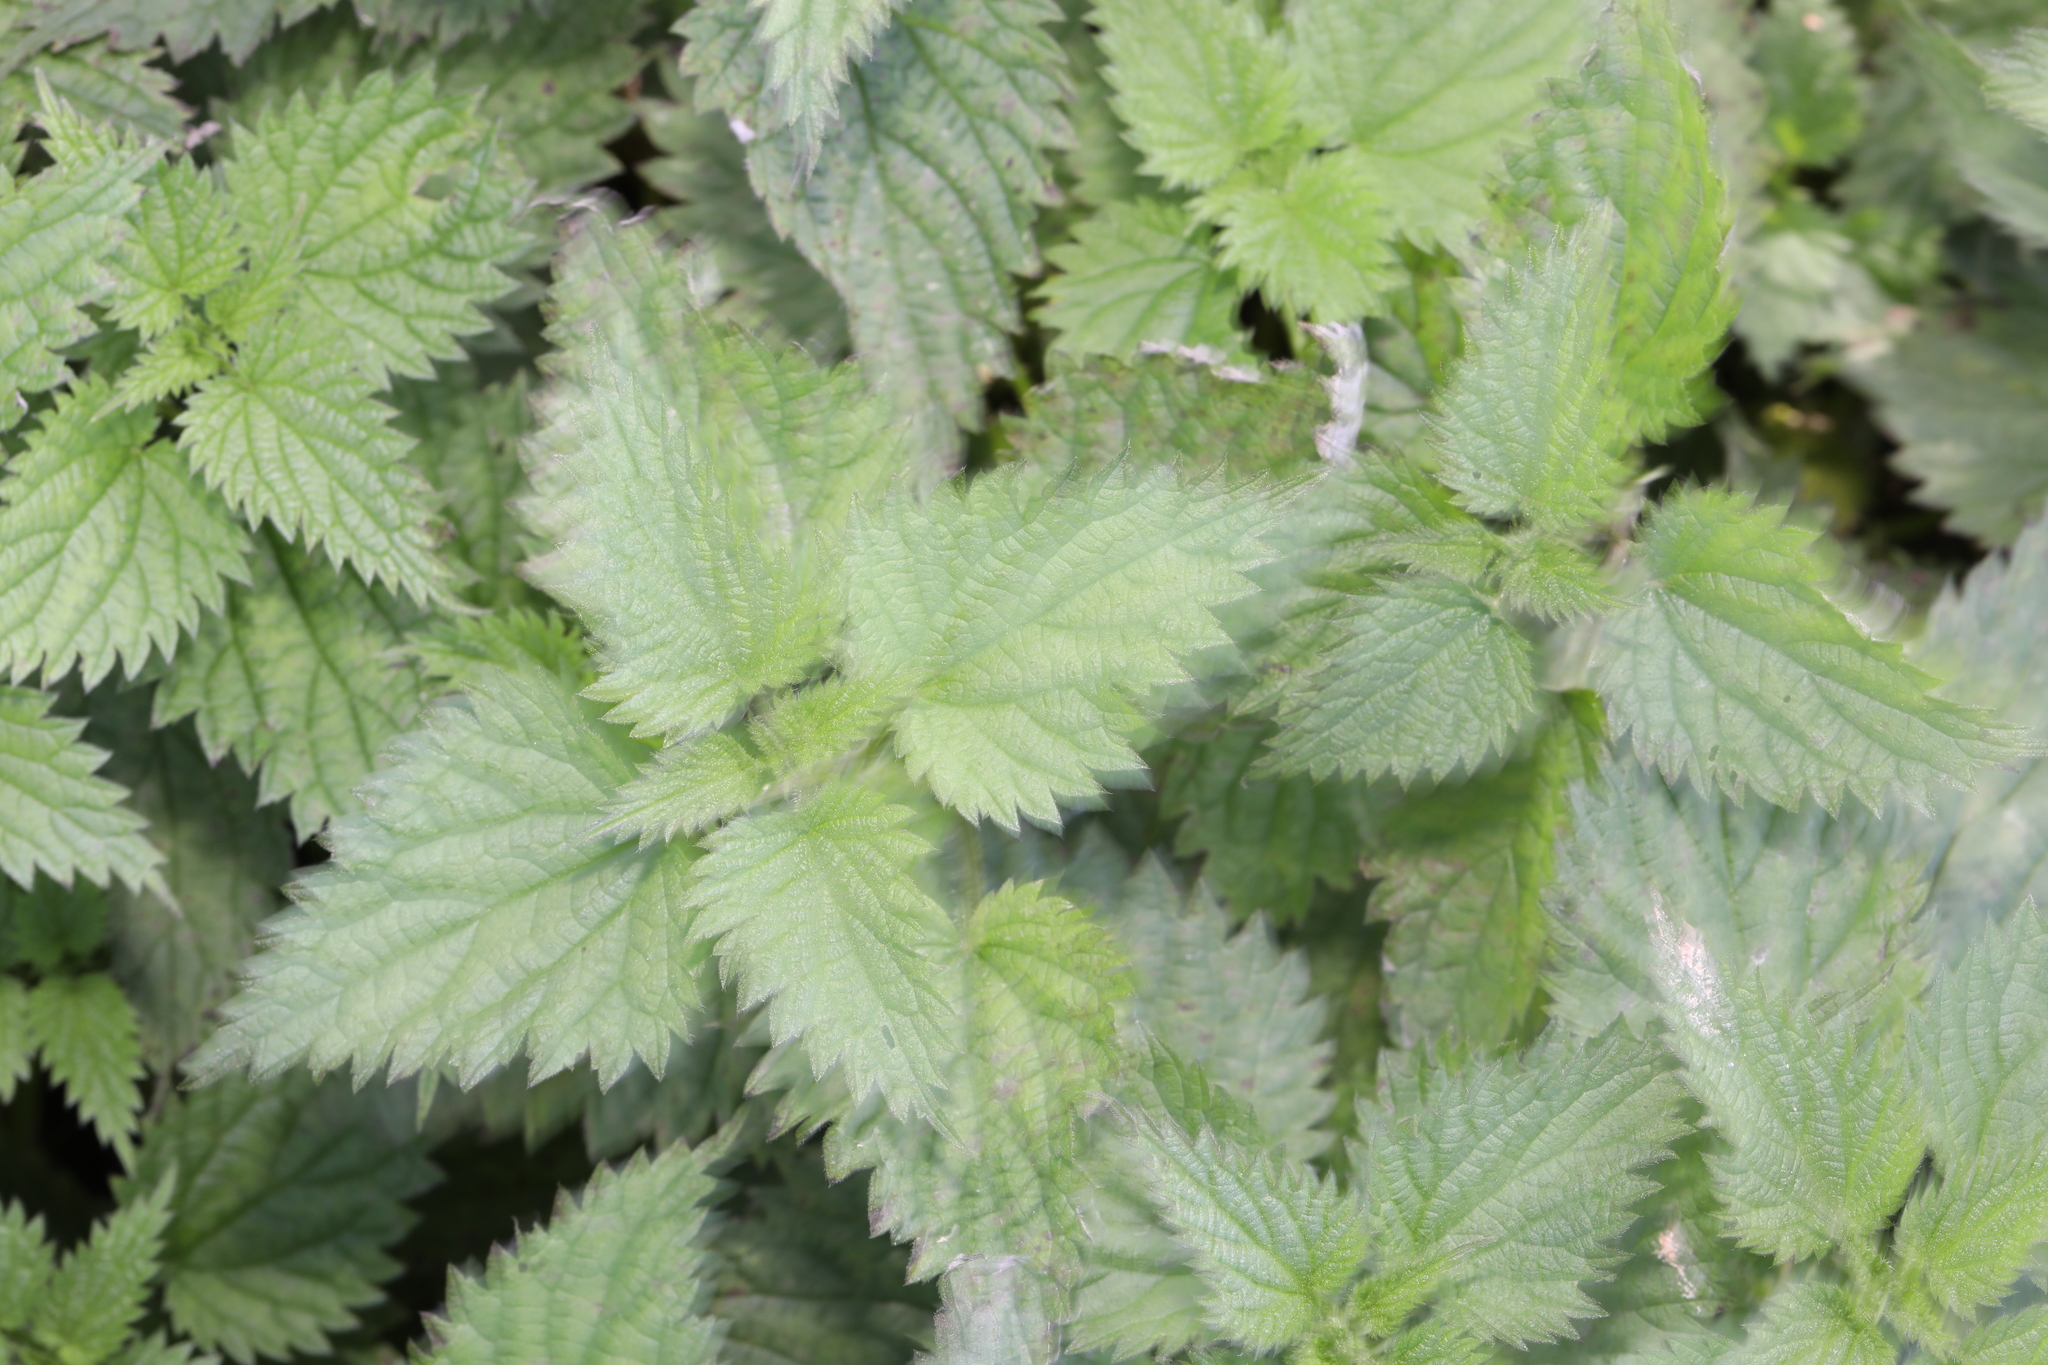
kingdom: Plantae
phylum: Tracheophyta
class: Magnoliopsida
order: Rosales
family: Urticaceae
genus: Urtica
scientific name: Urtica dioica
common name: Common nettle
